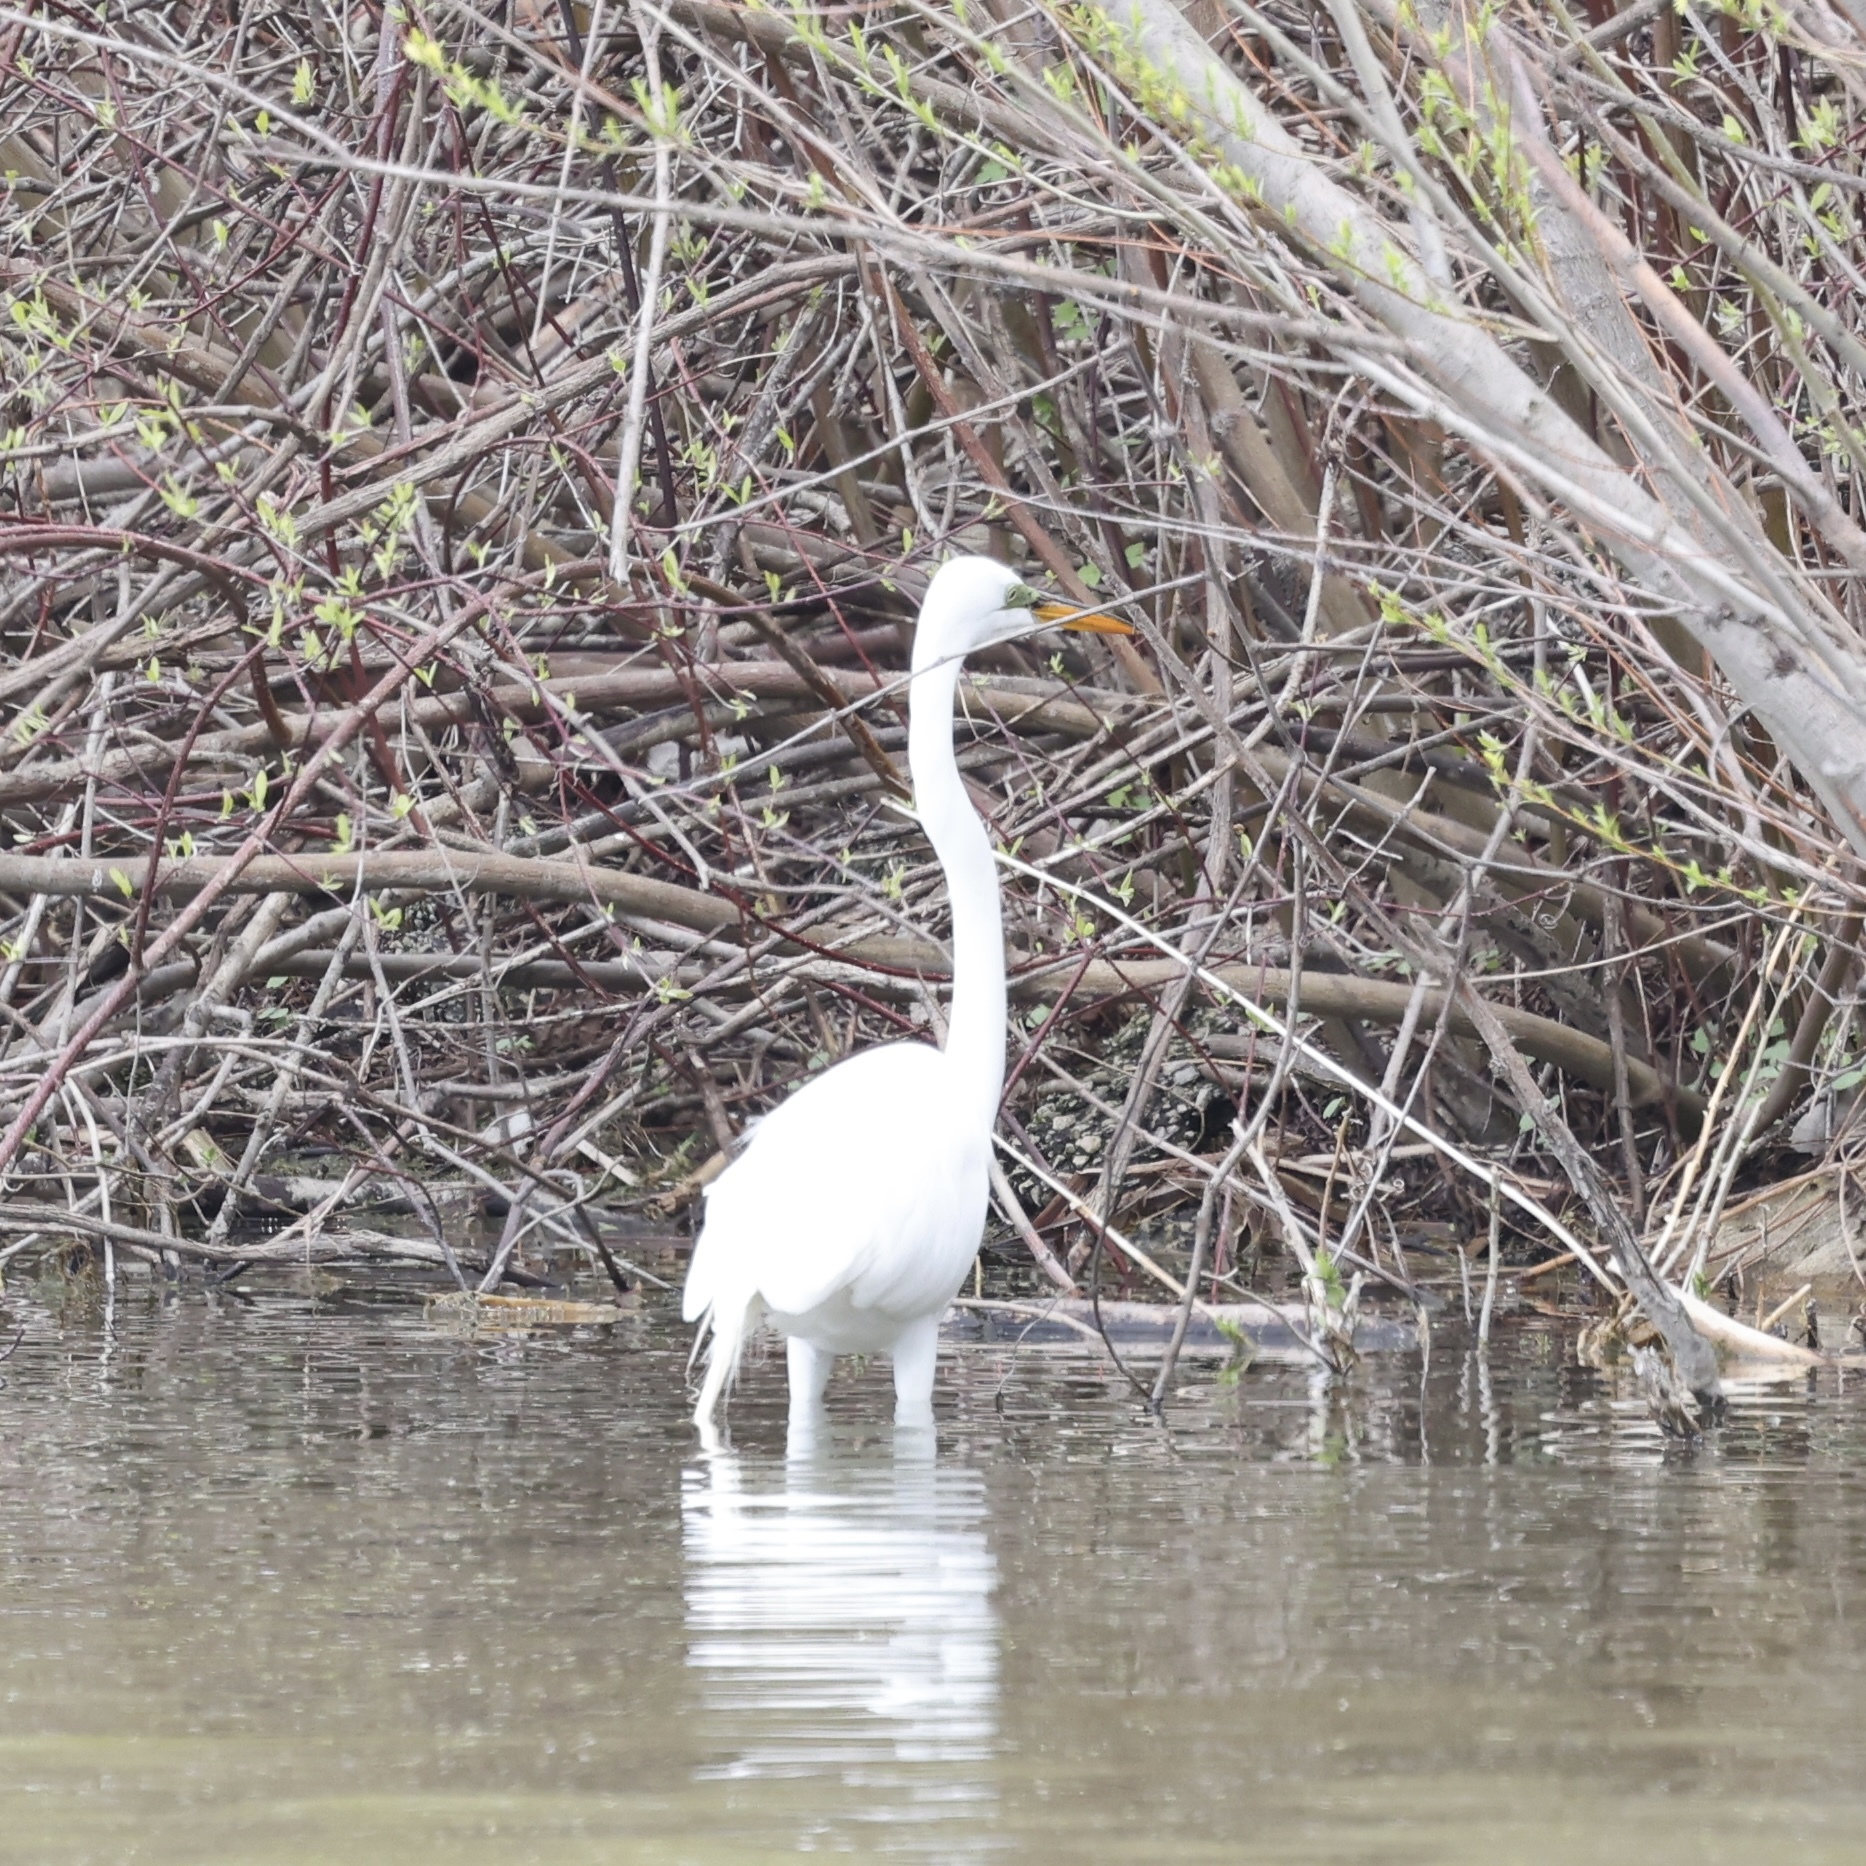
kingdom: Animalia
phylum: Chordata
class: Aves
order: Pelecaniformes
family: Ardeidae
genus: Ardea
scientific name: Ardea alba
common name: Great egret
